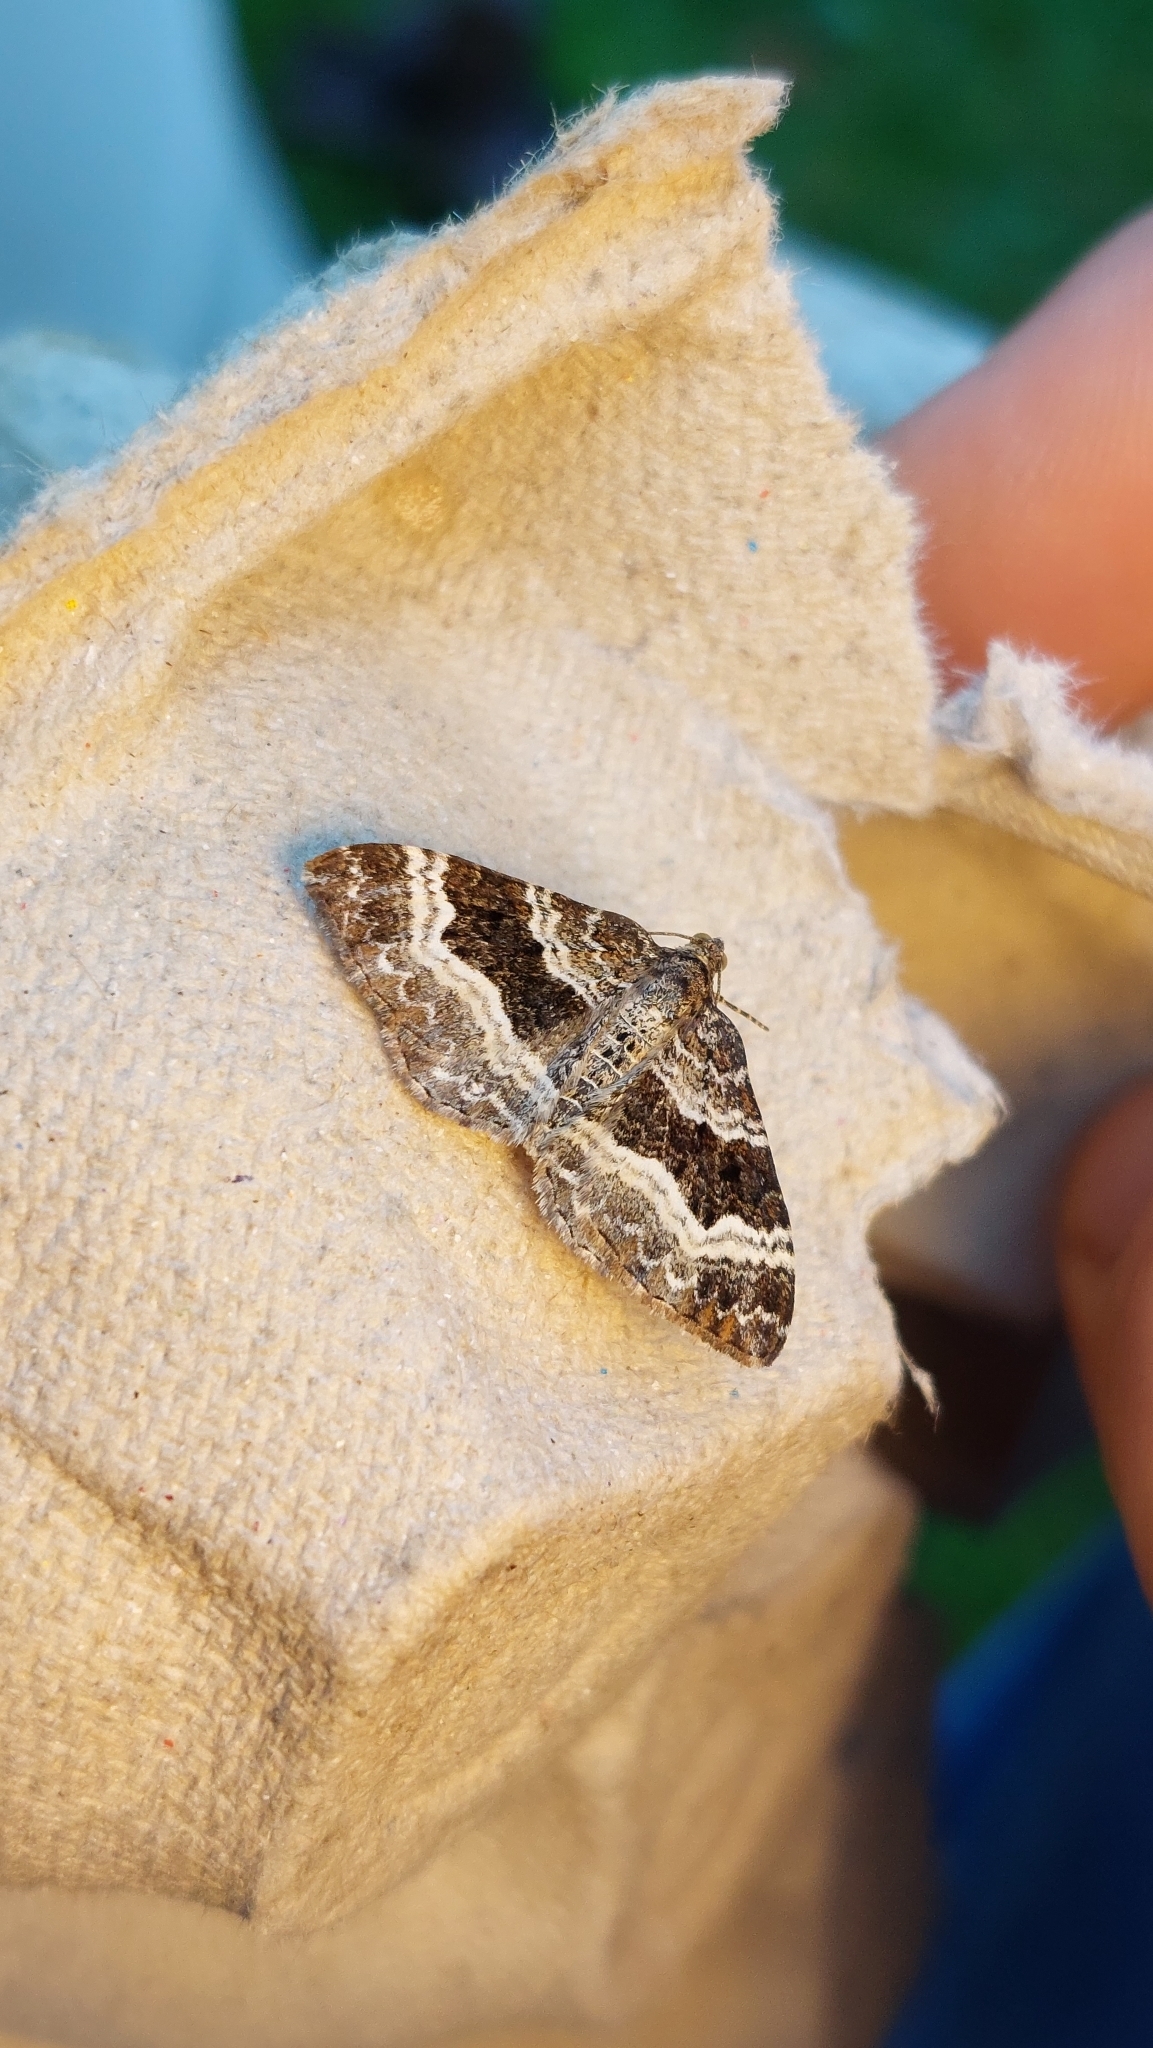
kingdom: Animalia
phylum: Arthropoda
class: Insecta
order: Lepidoptera
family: Geometridae
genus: Epirrhoe
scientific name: Epirrhoe alternata
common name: Common carpet
